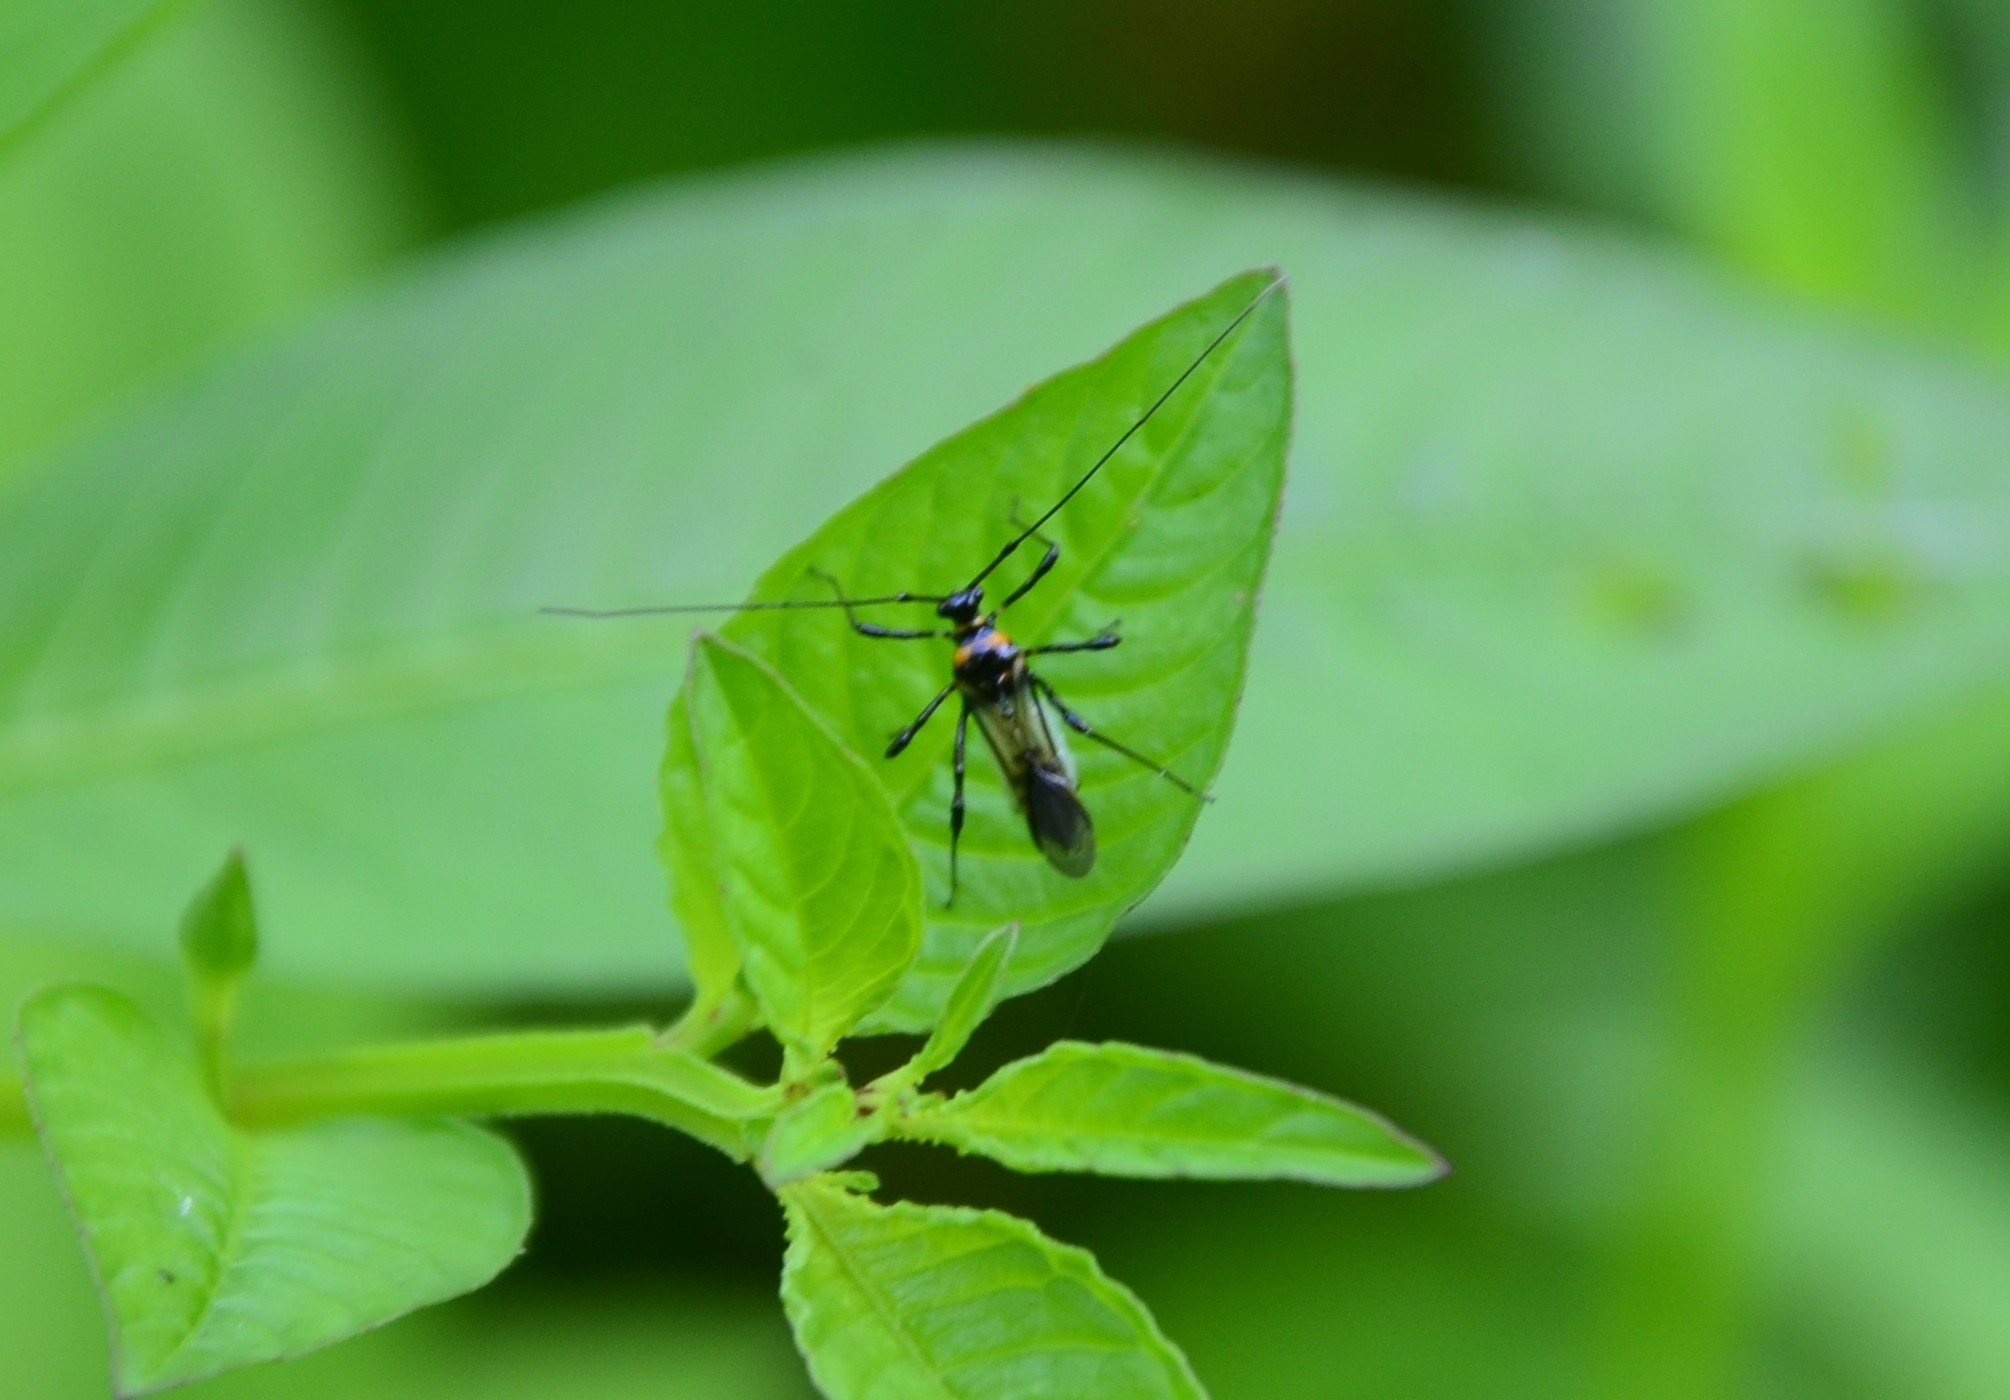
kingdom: Animalia
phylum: Arthropoda
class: Insecta
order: Hemiptera
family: Miridae
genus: Helopeltis
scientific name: Helopeltis theivora
